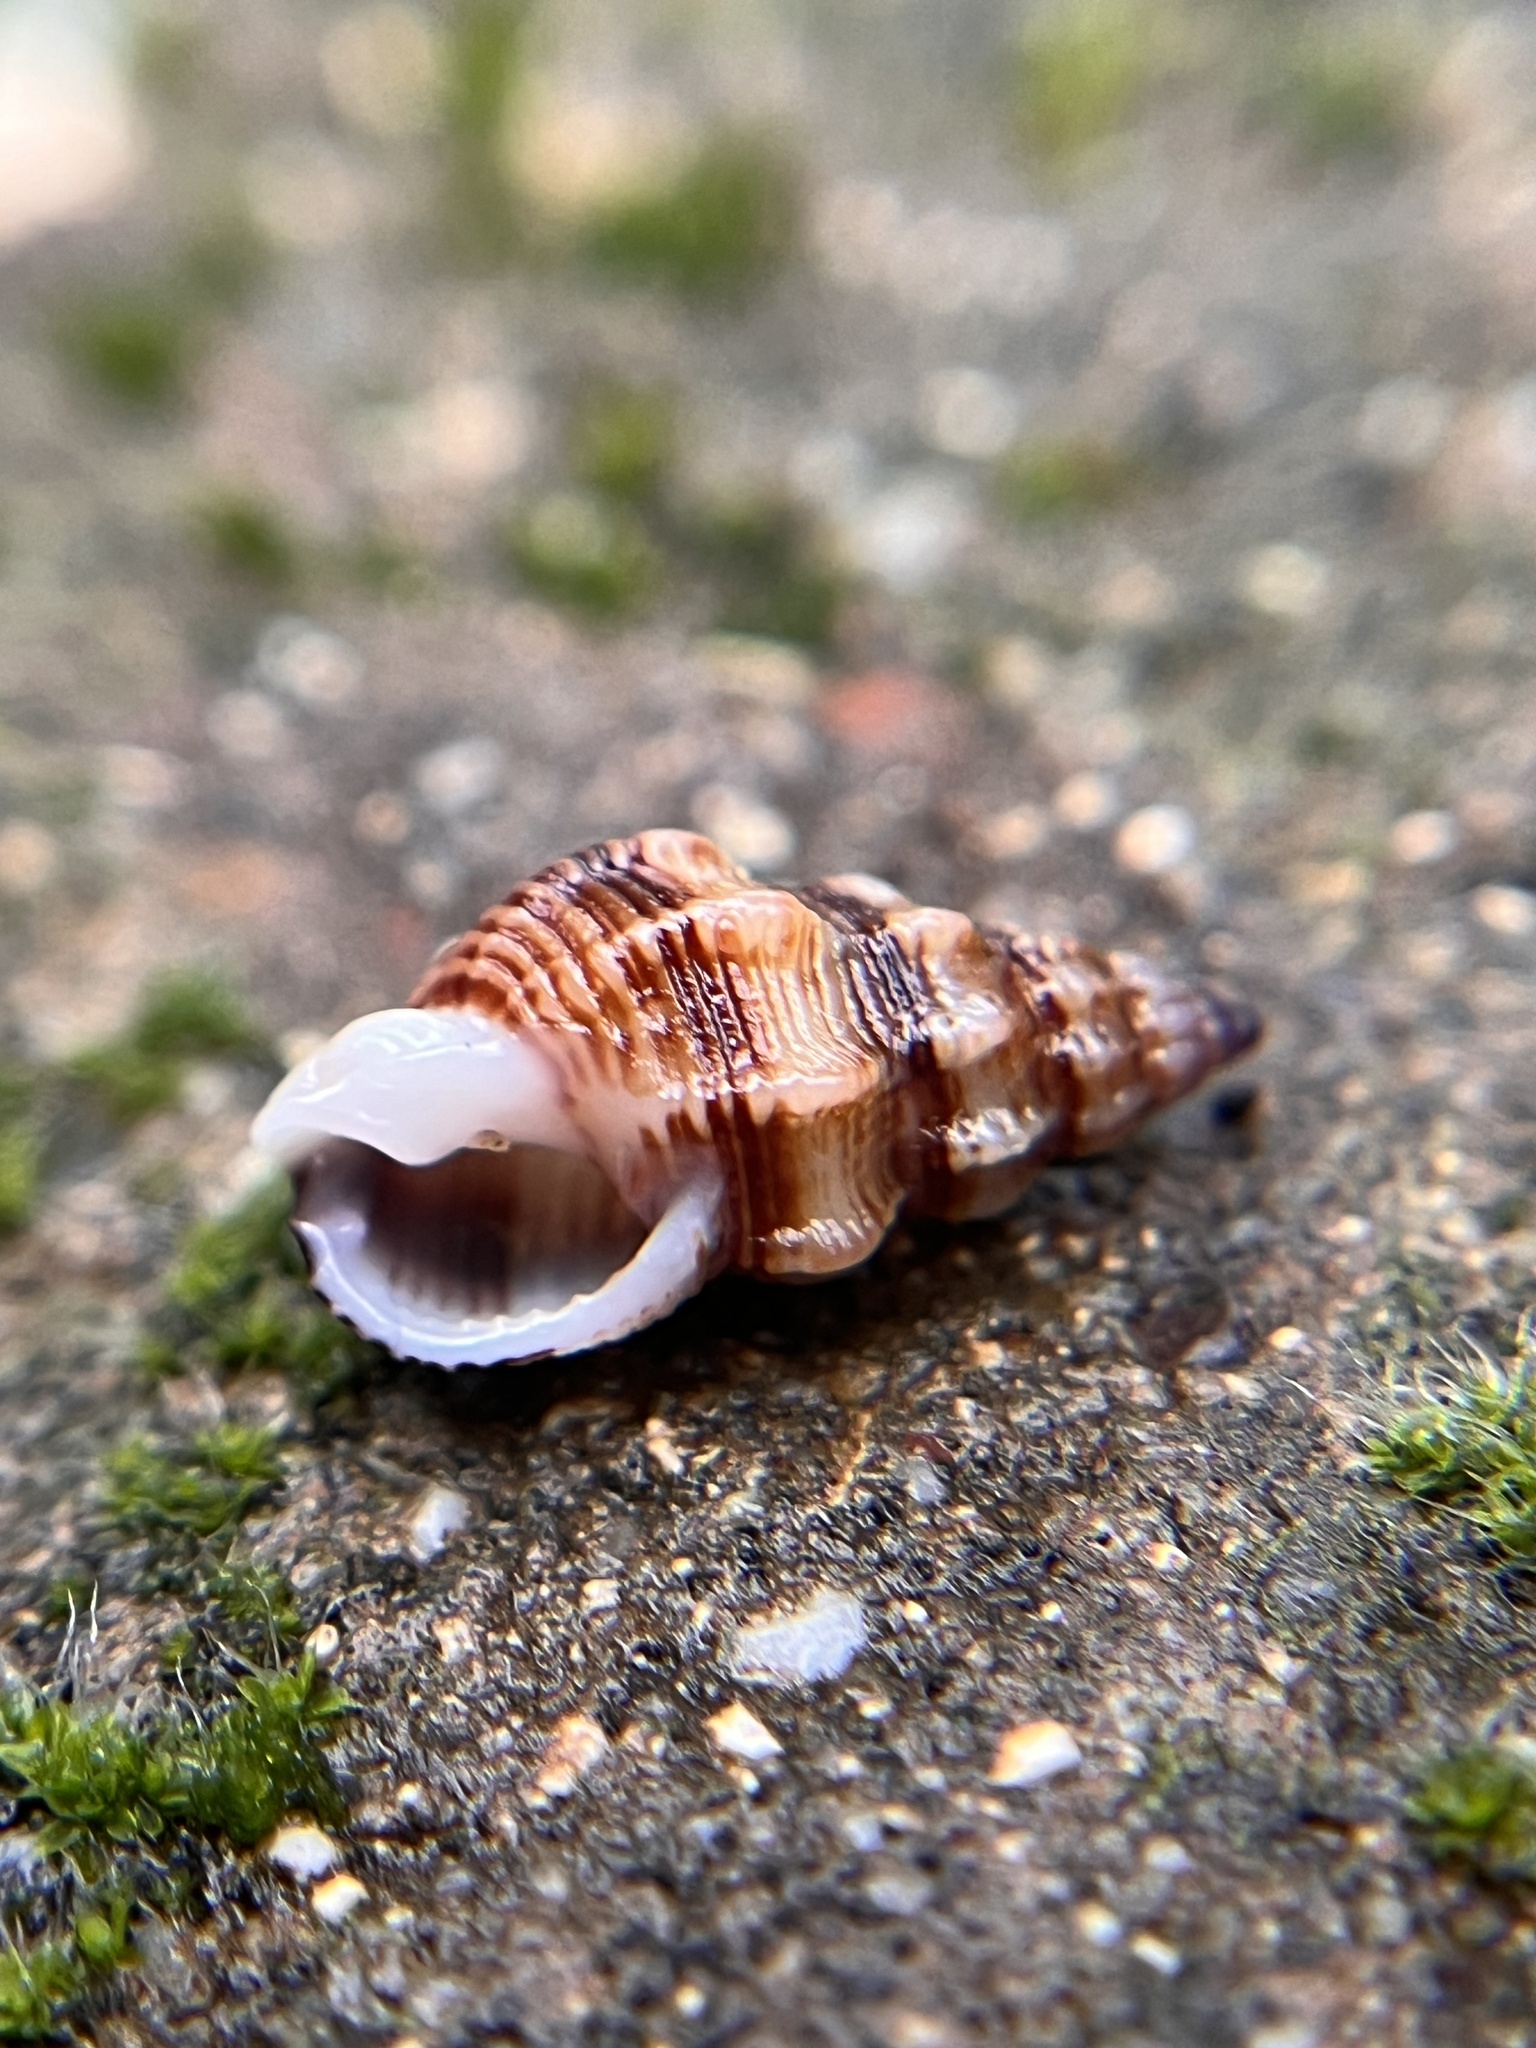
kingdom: Animalia
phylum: Mollusca
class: Gastropoda
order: Neogastropoda
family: Nassariidae
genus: Nassarius
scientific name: Nassarius mendicus
